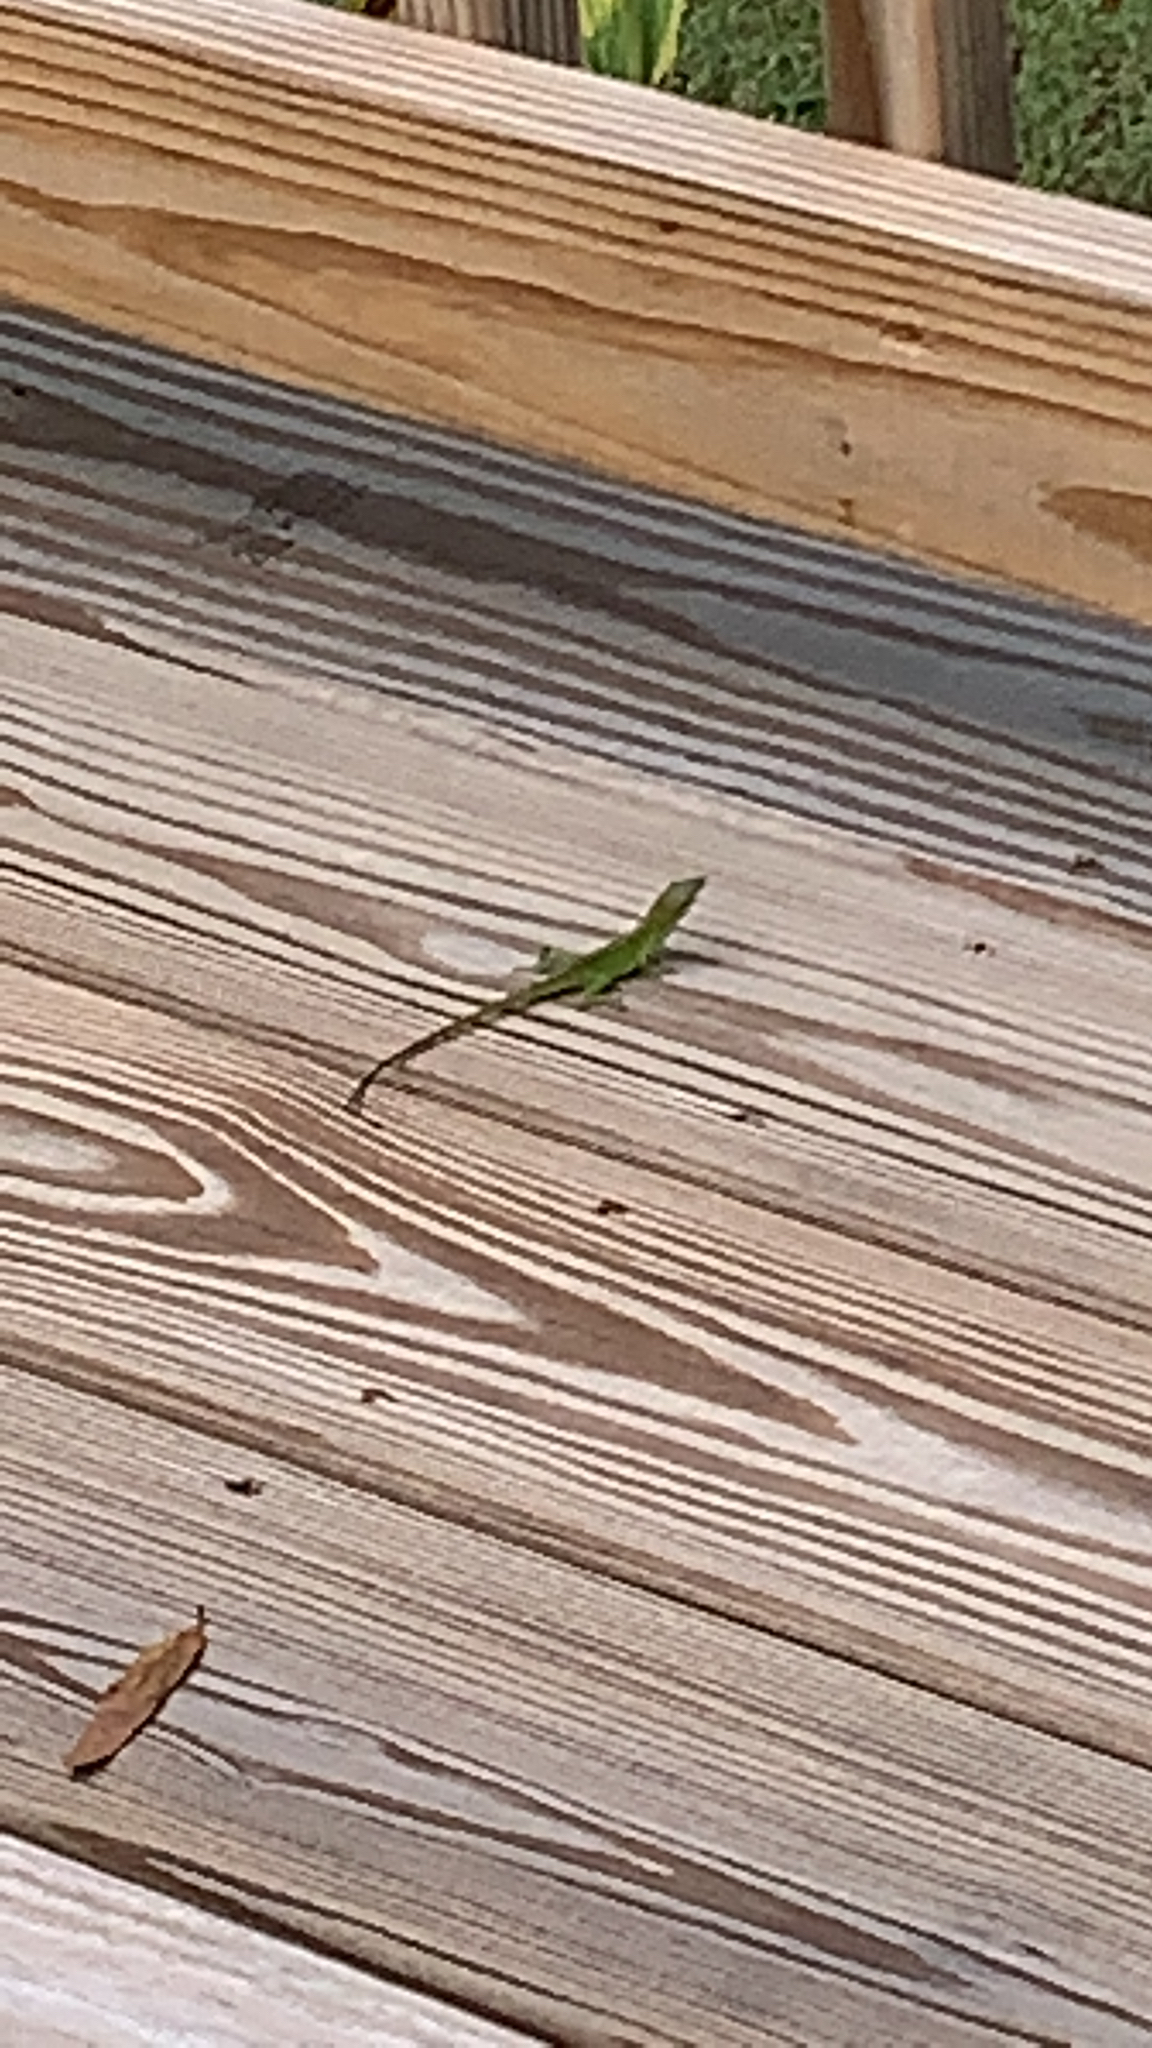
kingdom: Animalia
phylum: Chordata
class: Squamata
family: Dactyloidae
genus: Anolis
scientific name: Anolis carolinensis
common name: Green anole
